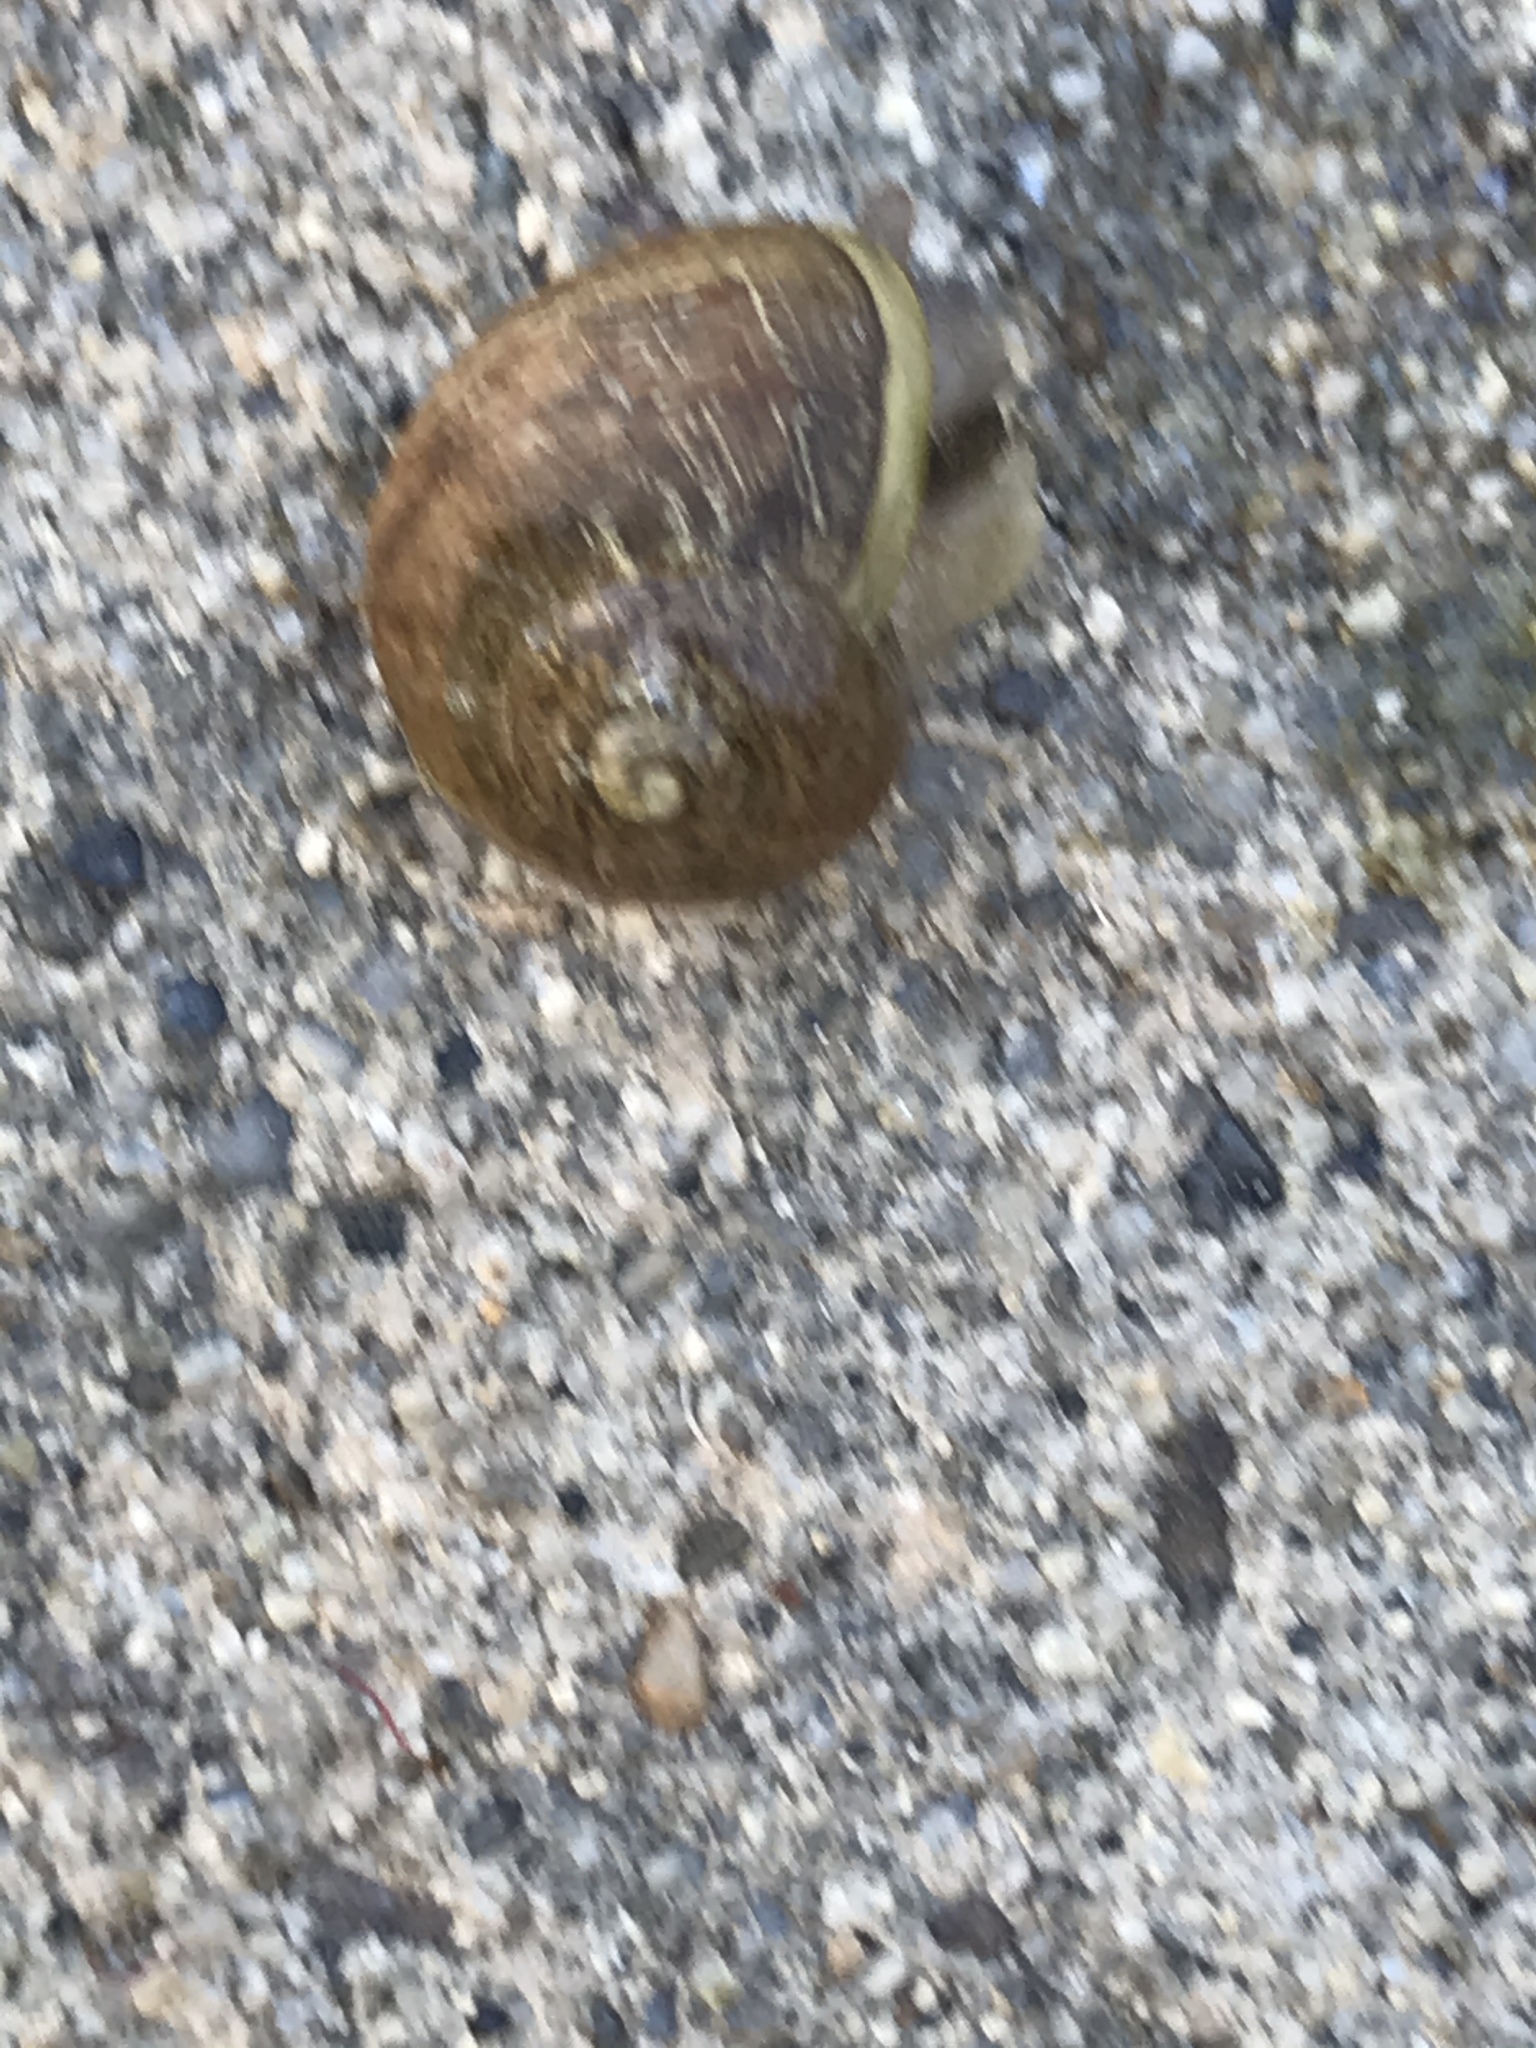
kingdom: Animalia
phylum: Mollusca
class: Gastropoda
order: Stylommatophora
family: Helicidae
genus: Cornu
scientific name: Cornu aspersum
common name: Brown garden snail
